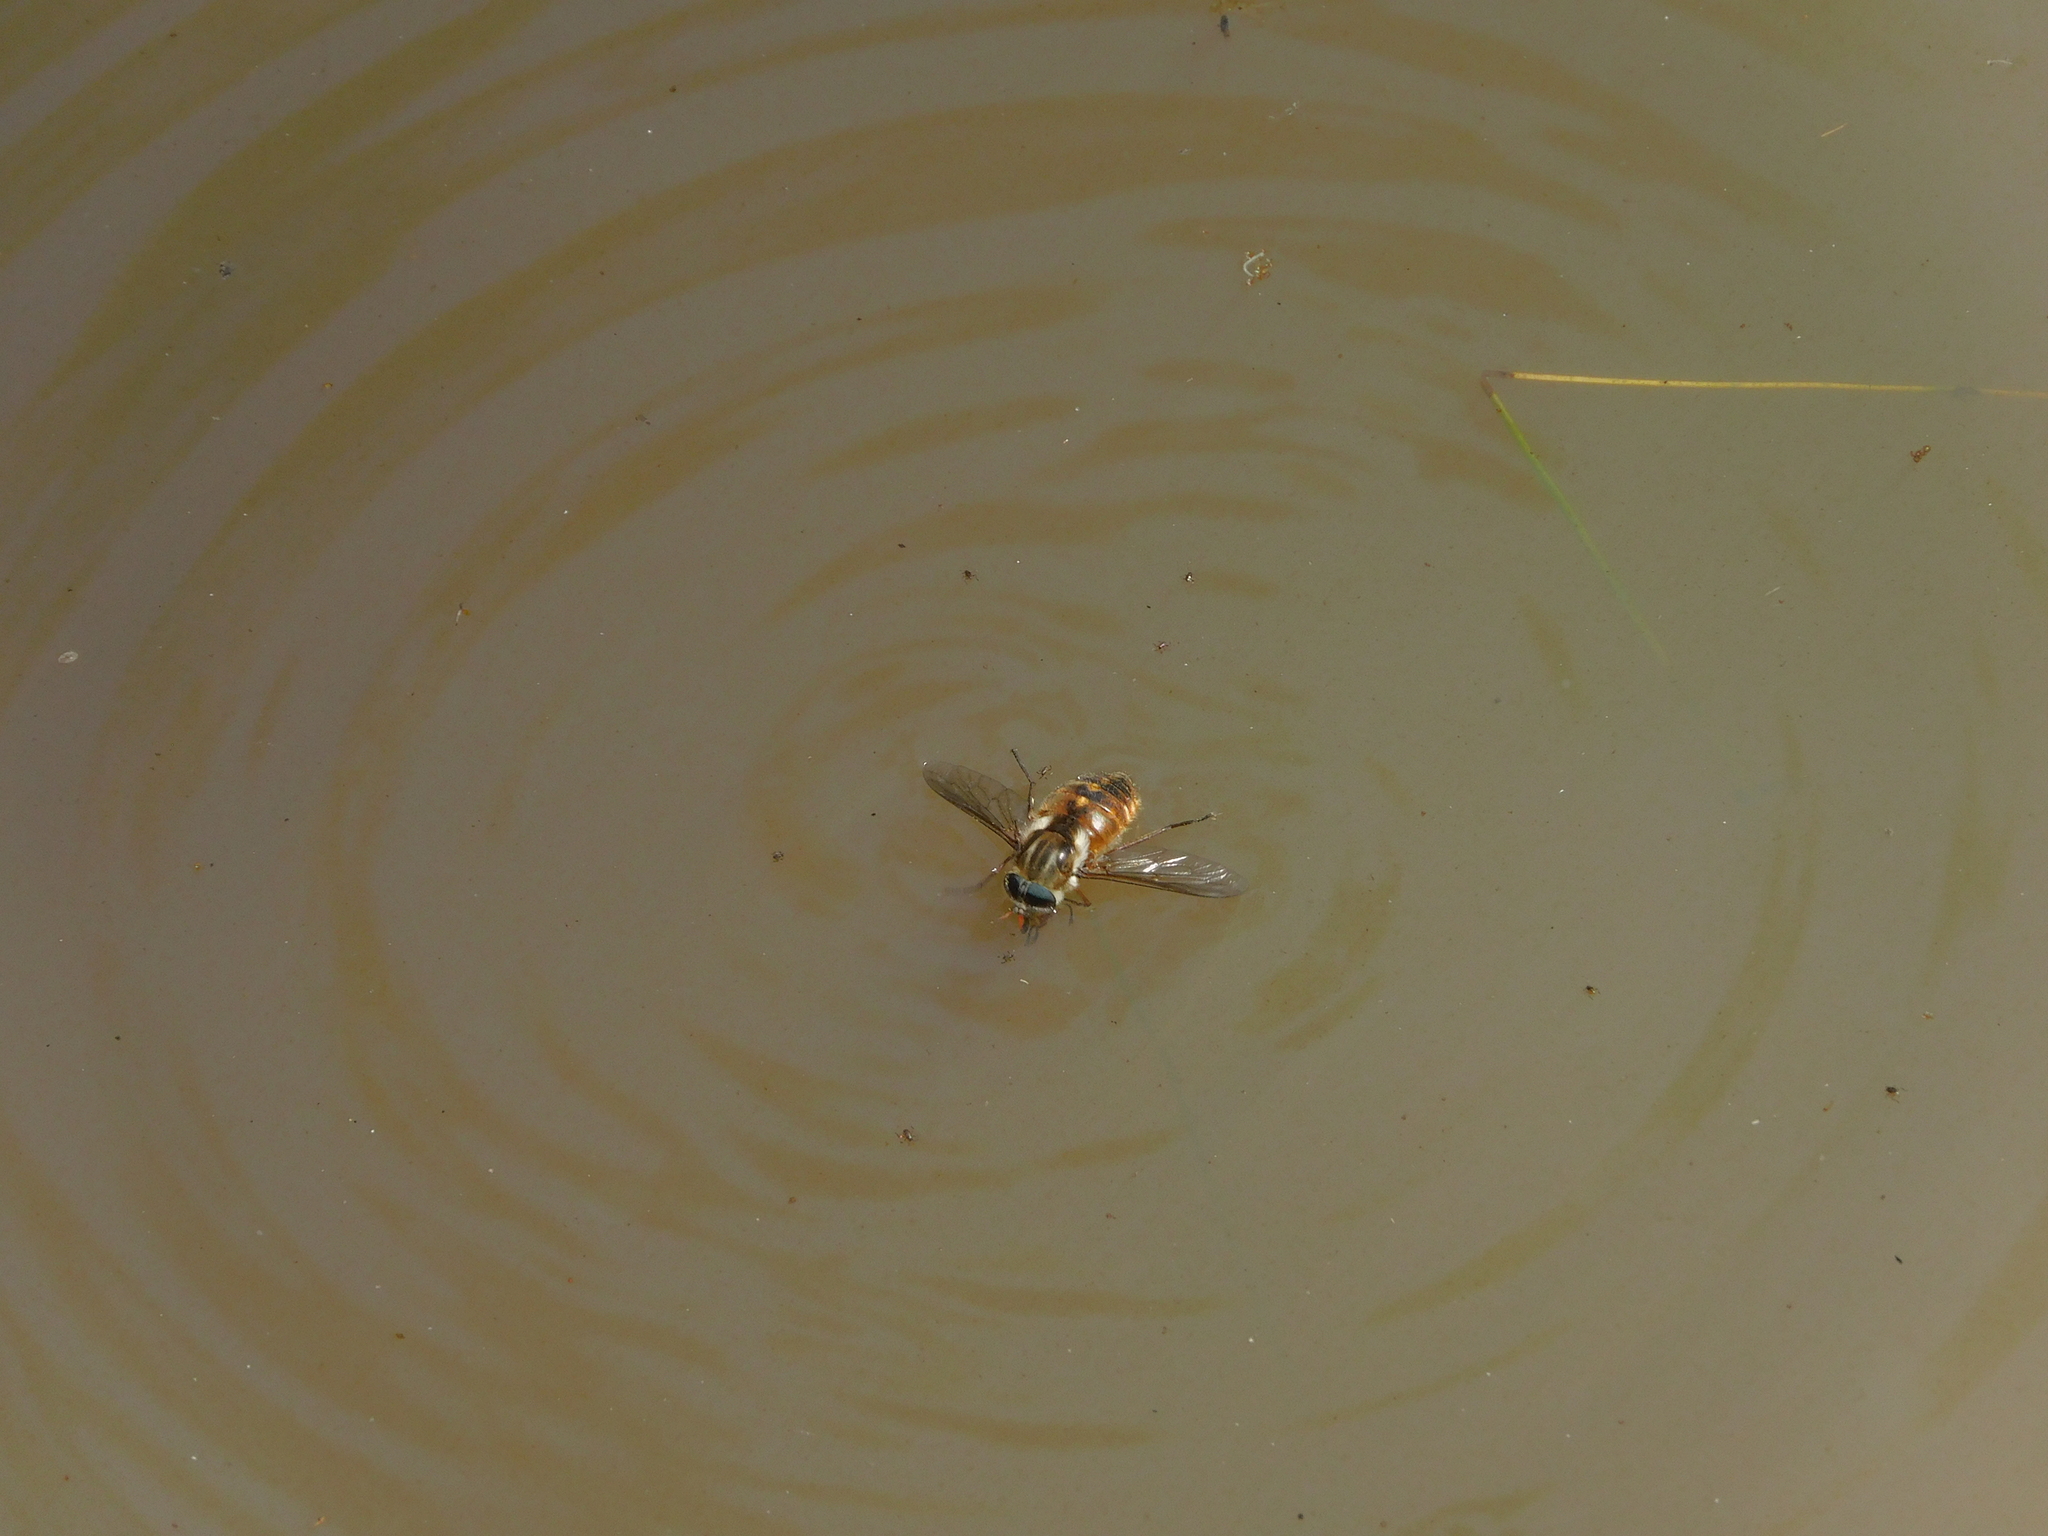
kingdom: Animalia
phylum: Arthropoda
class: Insecta
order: Diptera
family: Tabanidae
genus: Scaptia
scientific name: Scaptia auriflua
